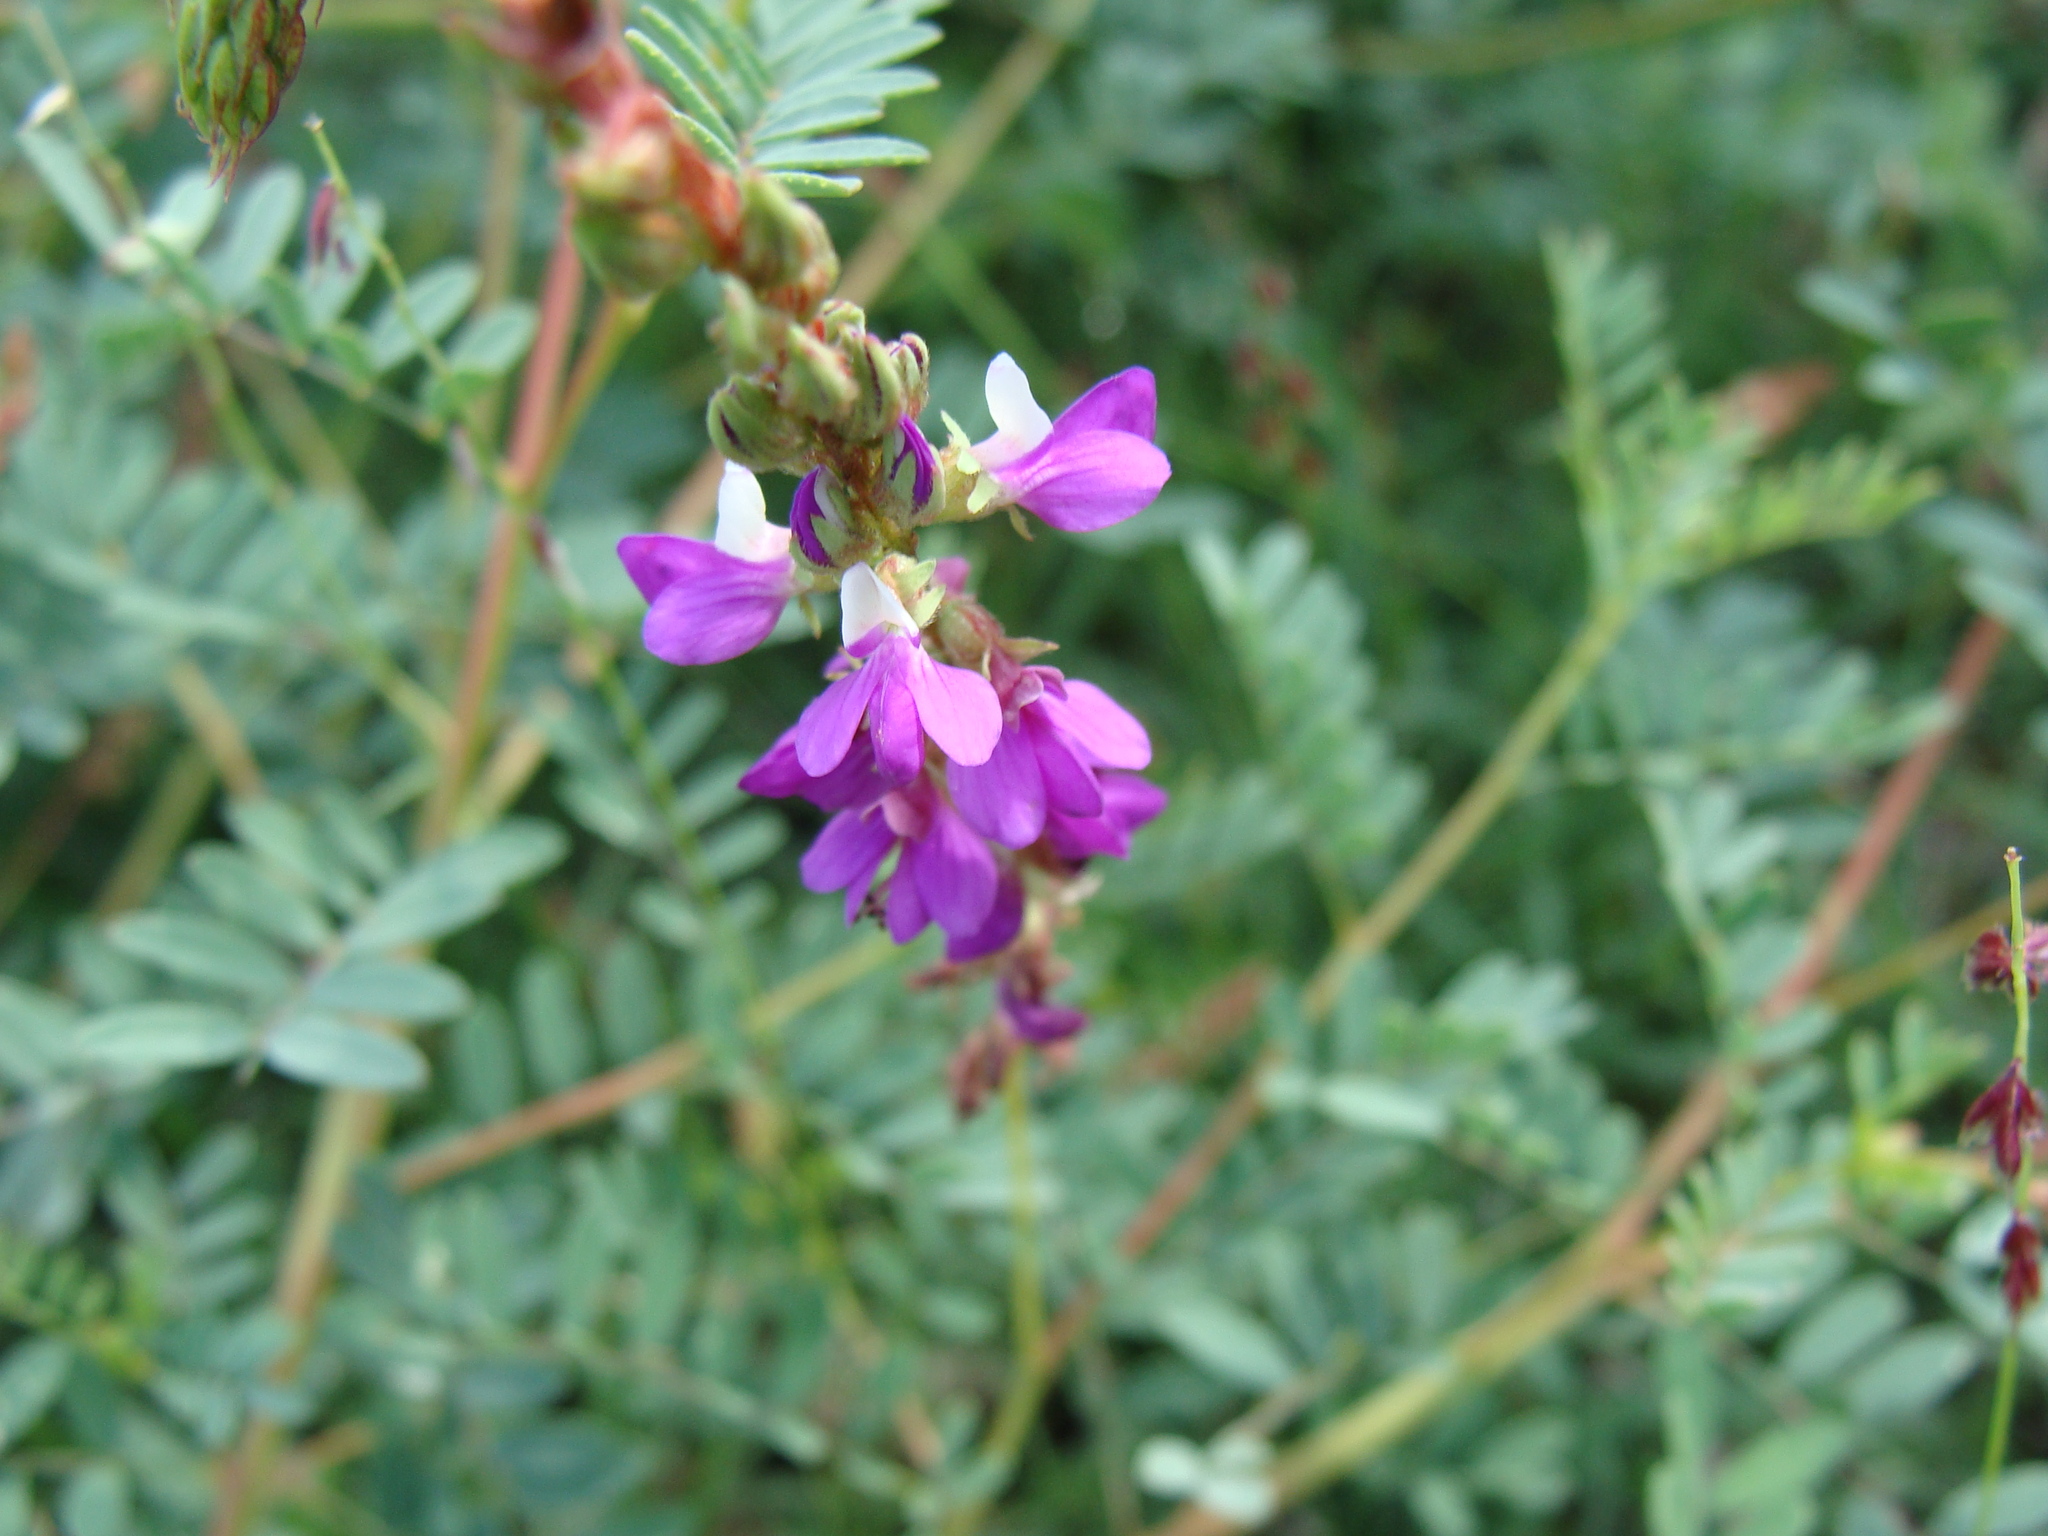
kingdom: Plantae
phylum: Tracheophyta
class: Magnoliopsida
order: Fabales
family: Fabaceae
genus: Dalea
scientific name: Dalea bicolor
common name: Silver prairie-clover
